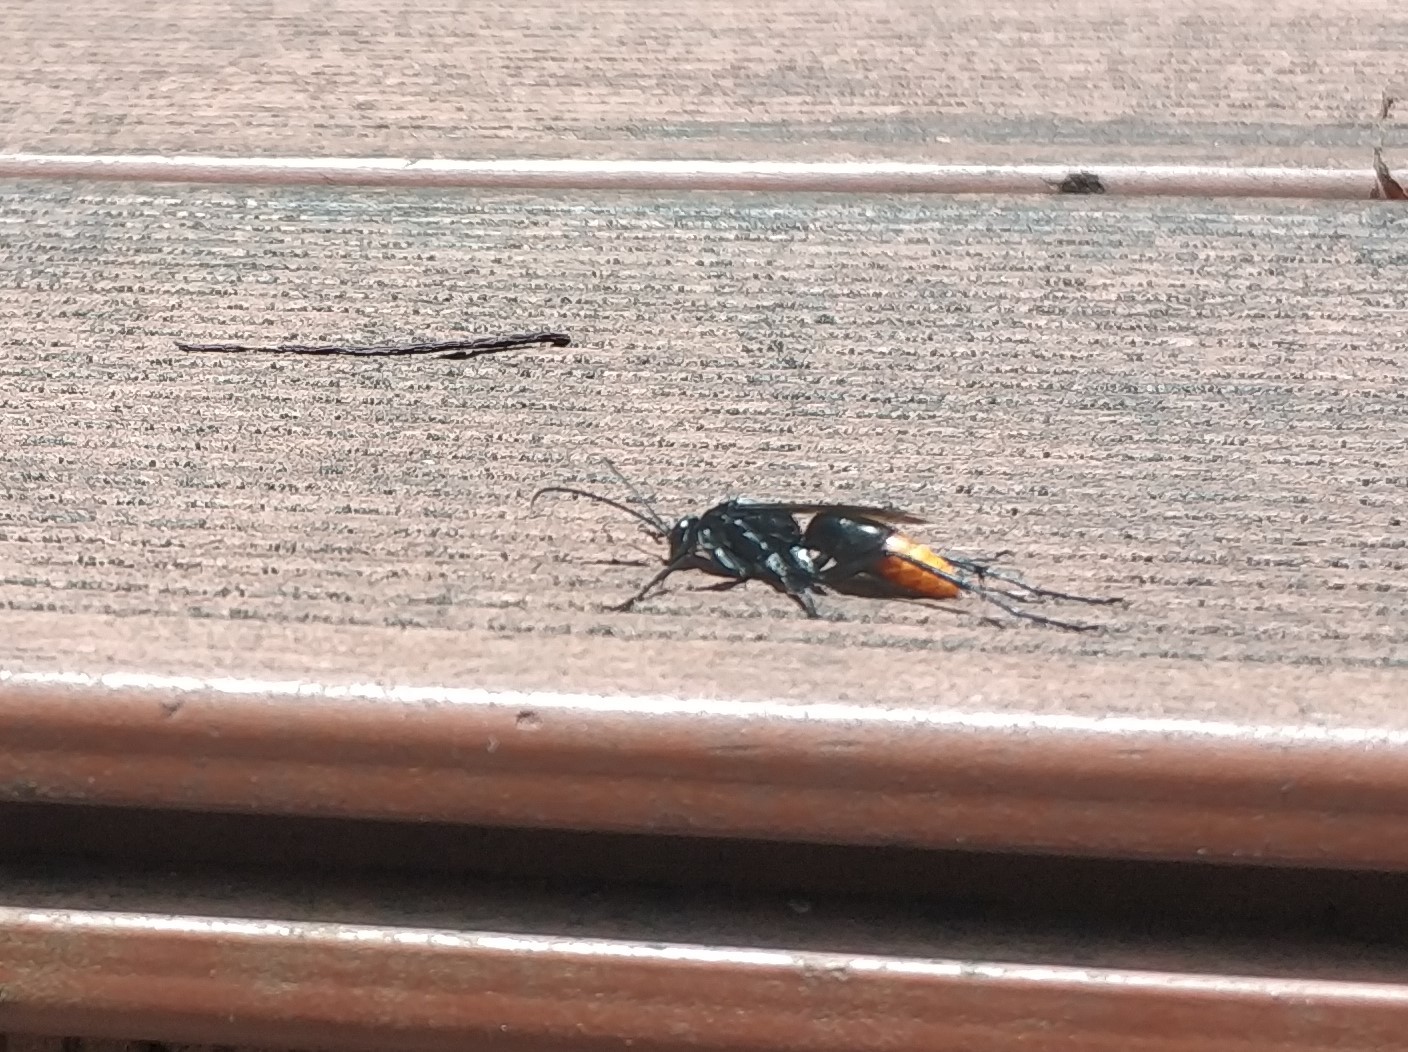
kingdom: Animalia
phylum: Arthropoda
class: Insecta
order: Hymenoptera
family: Pompilidae
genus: Tachypompilus
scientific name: Tachypompilus analis
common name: Spider wasp
